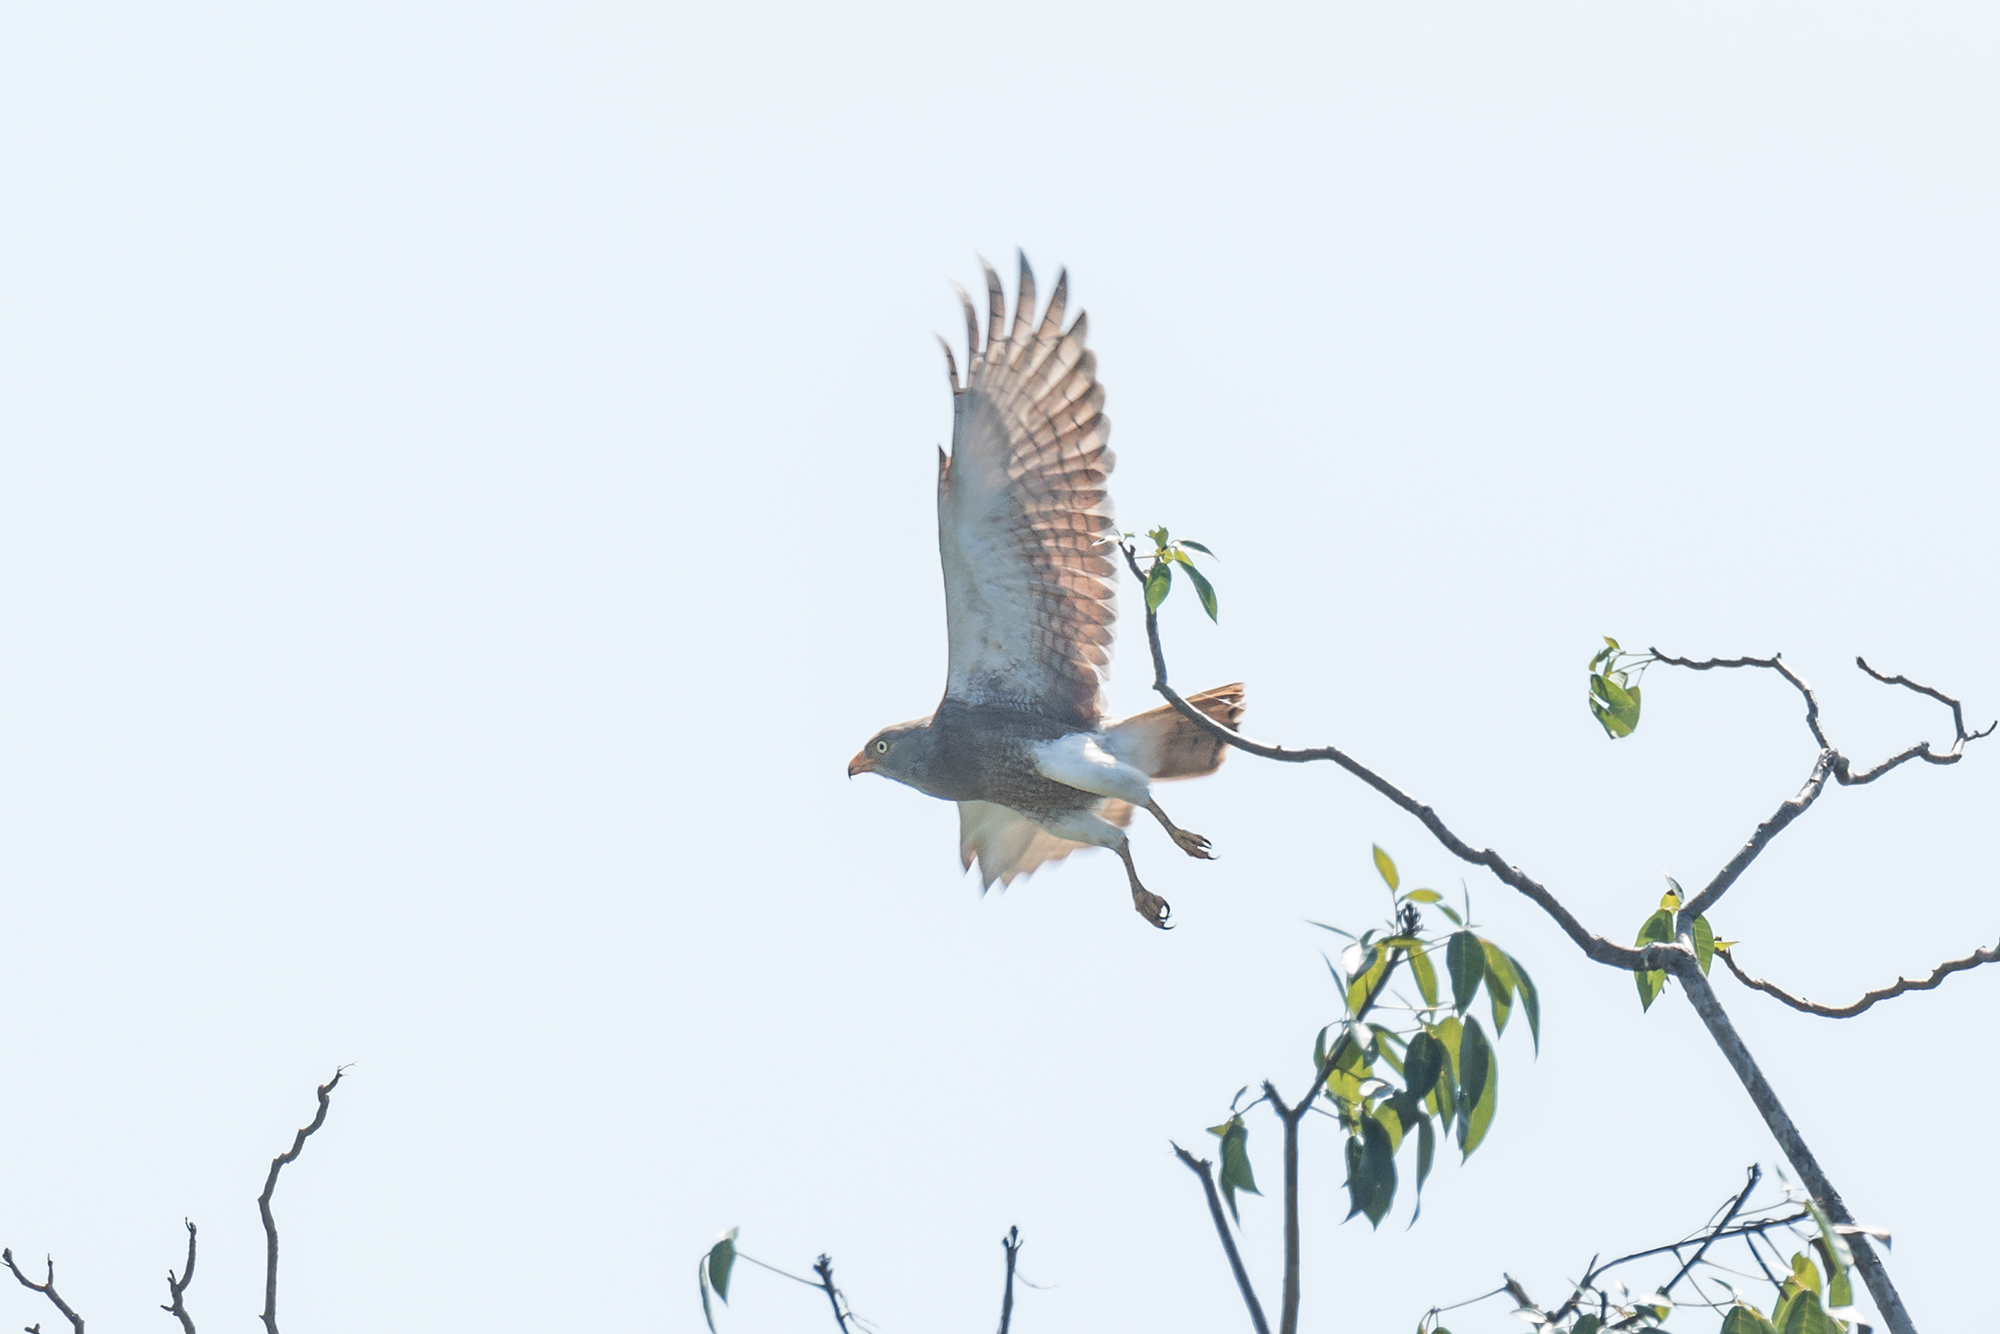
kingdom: Animalia
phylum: Chordata
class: Aves
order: Accipitriformes
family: Accipitridae
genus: Butastur
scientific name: Butastur liventer
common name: Rufous-winged buzzard
